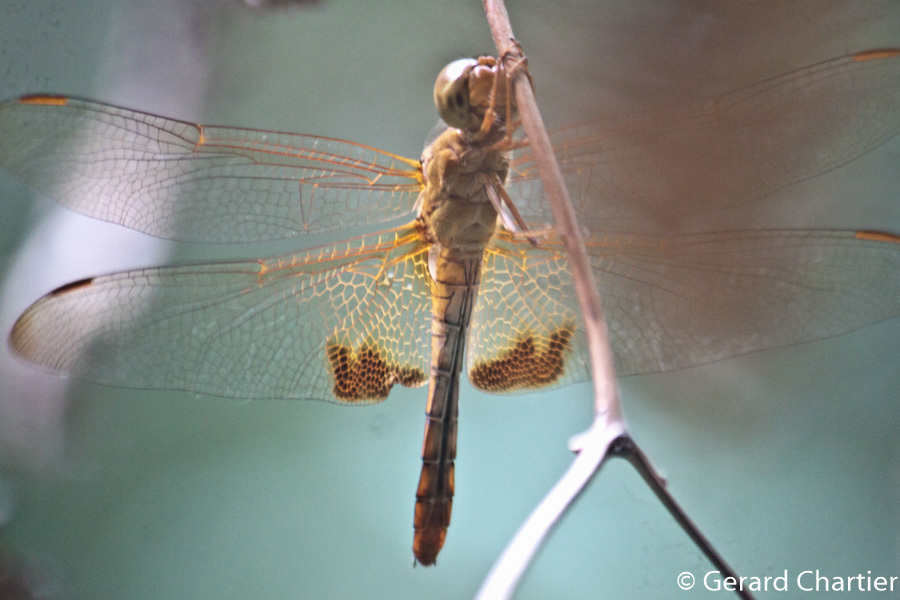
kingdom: Animalia
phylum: Arthropoda
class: Insecta
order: Odonata
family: Libellulidae
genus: Hydrobasileus
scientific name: Hydrobasileus croceus
